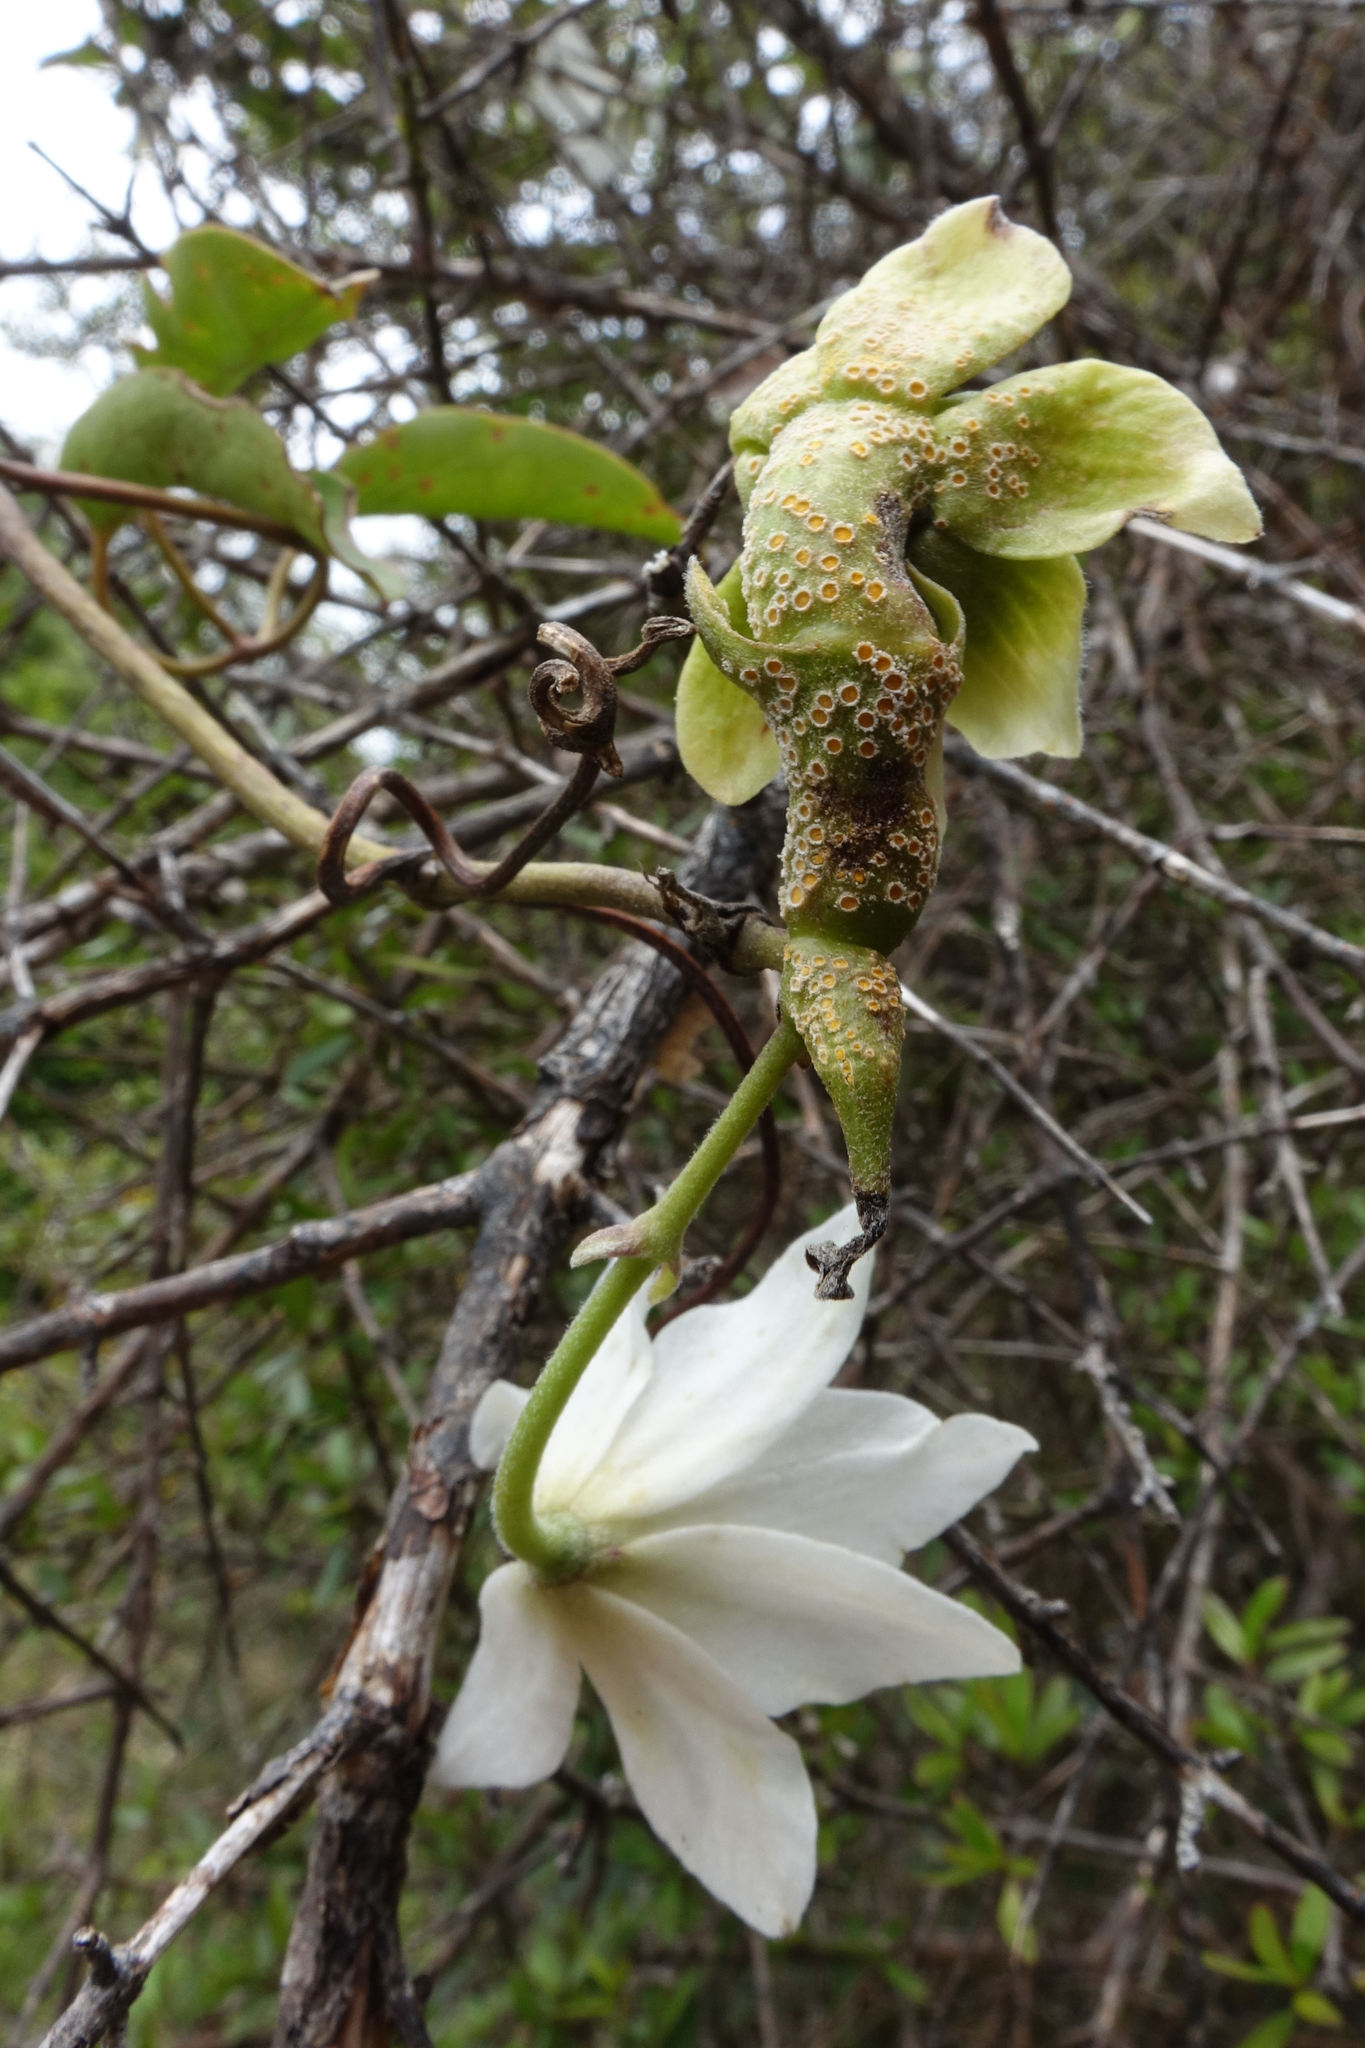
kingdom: Fungi
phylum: Basidiomycota
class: Pucciniomycetes
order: Pucciniales
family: Pucciniaceae
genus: Puccinia
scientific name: Puccinia otagensis
